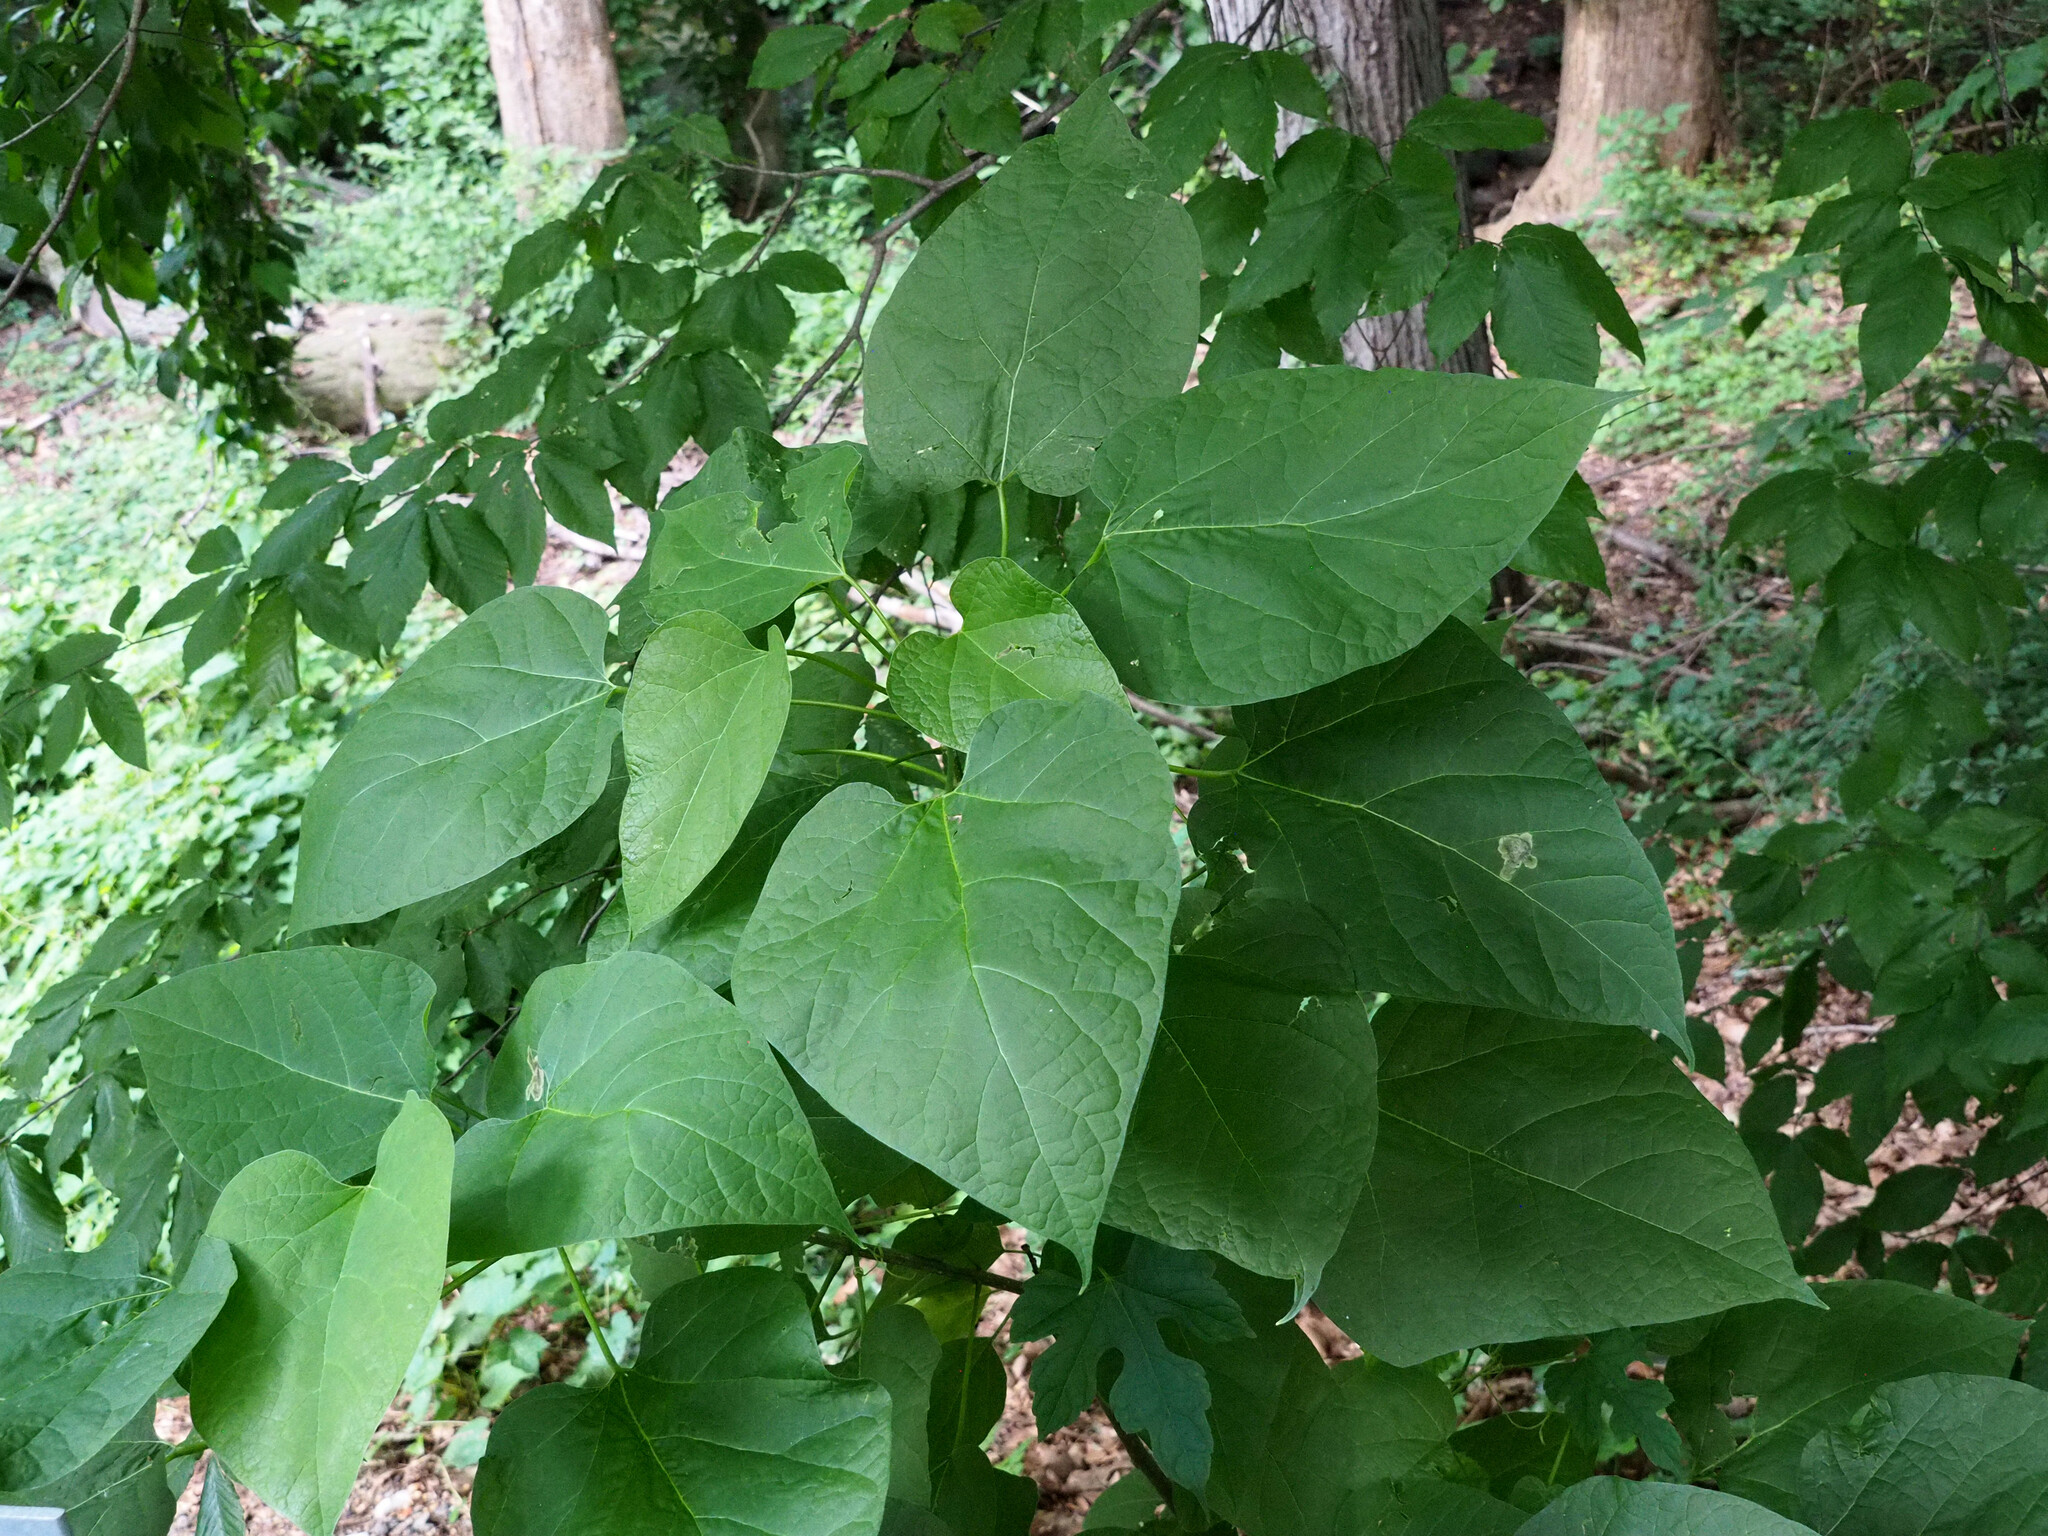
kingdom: Animalia
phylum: Arthropoda
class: Insecta
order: Diptera
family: Agromyzidae
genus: Amauromyza
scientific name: Amauromyza pleuralis
